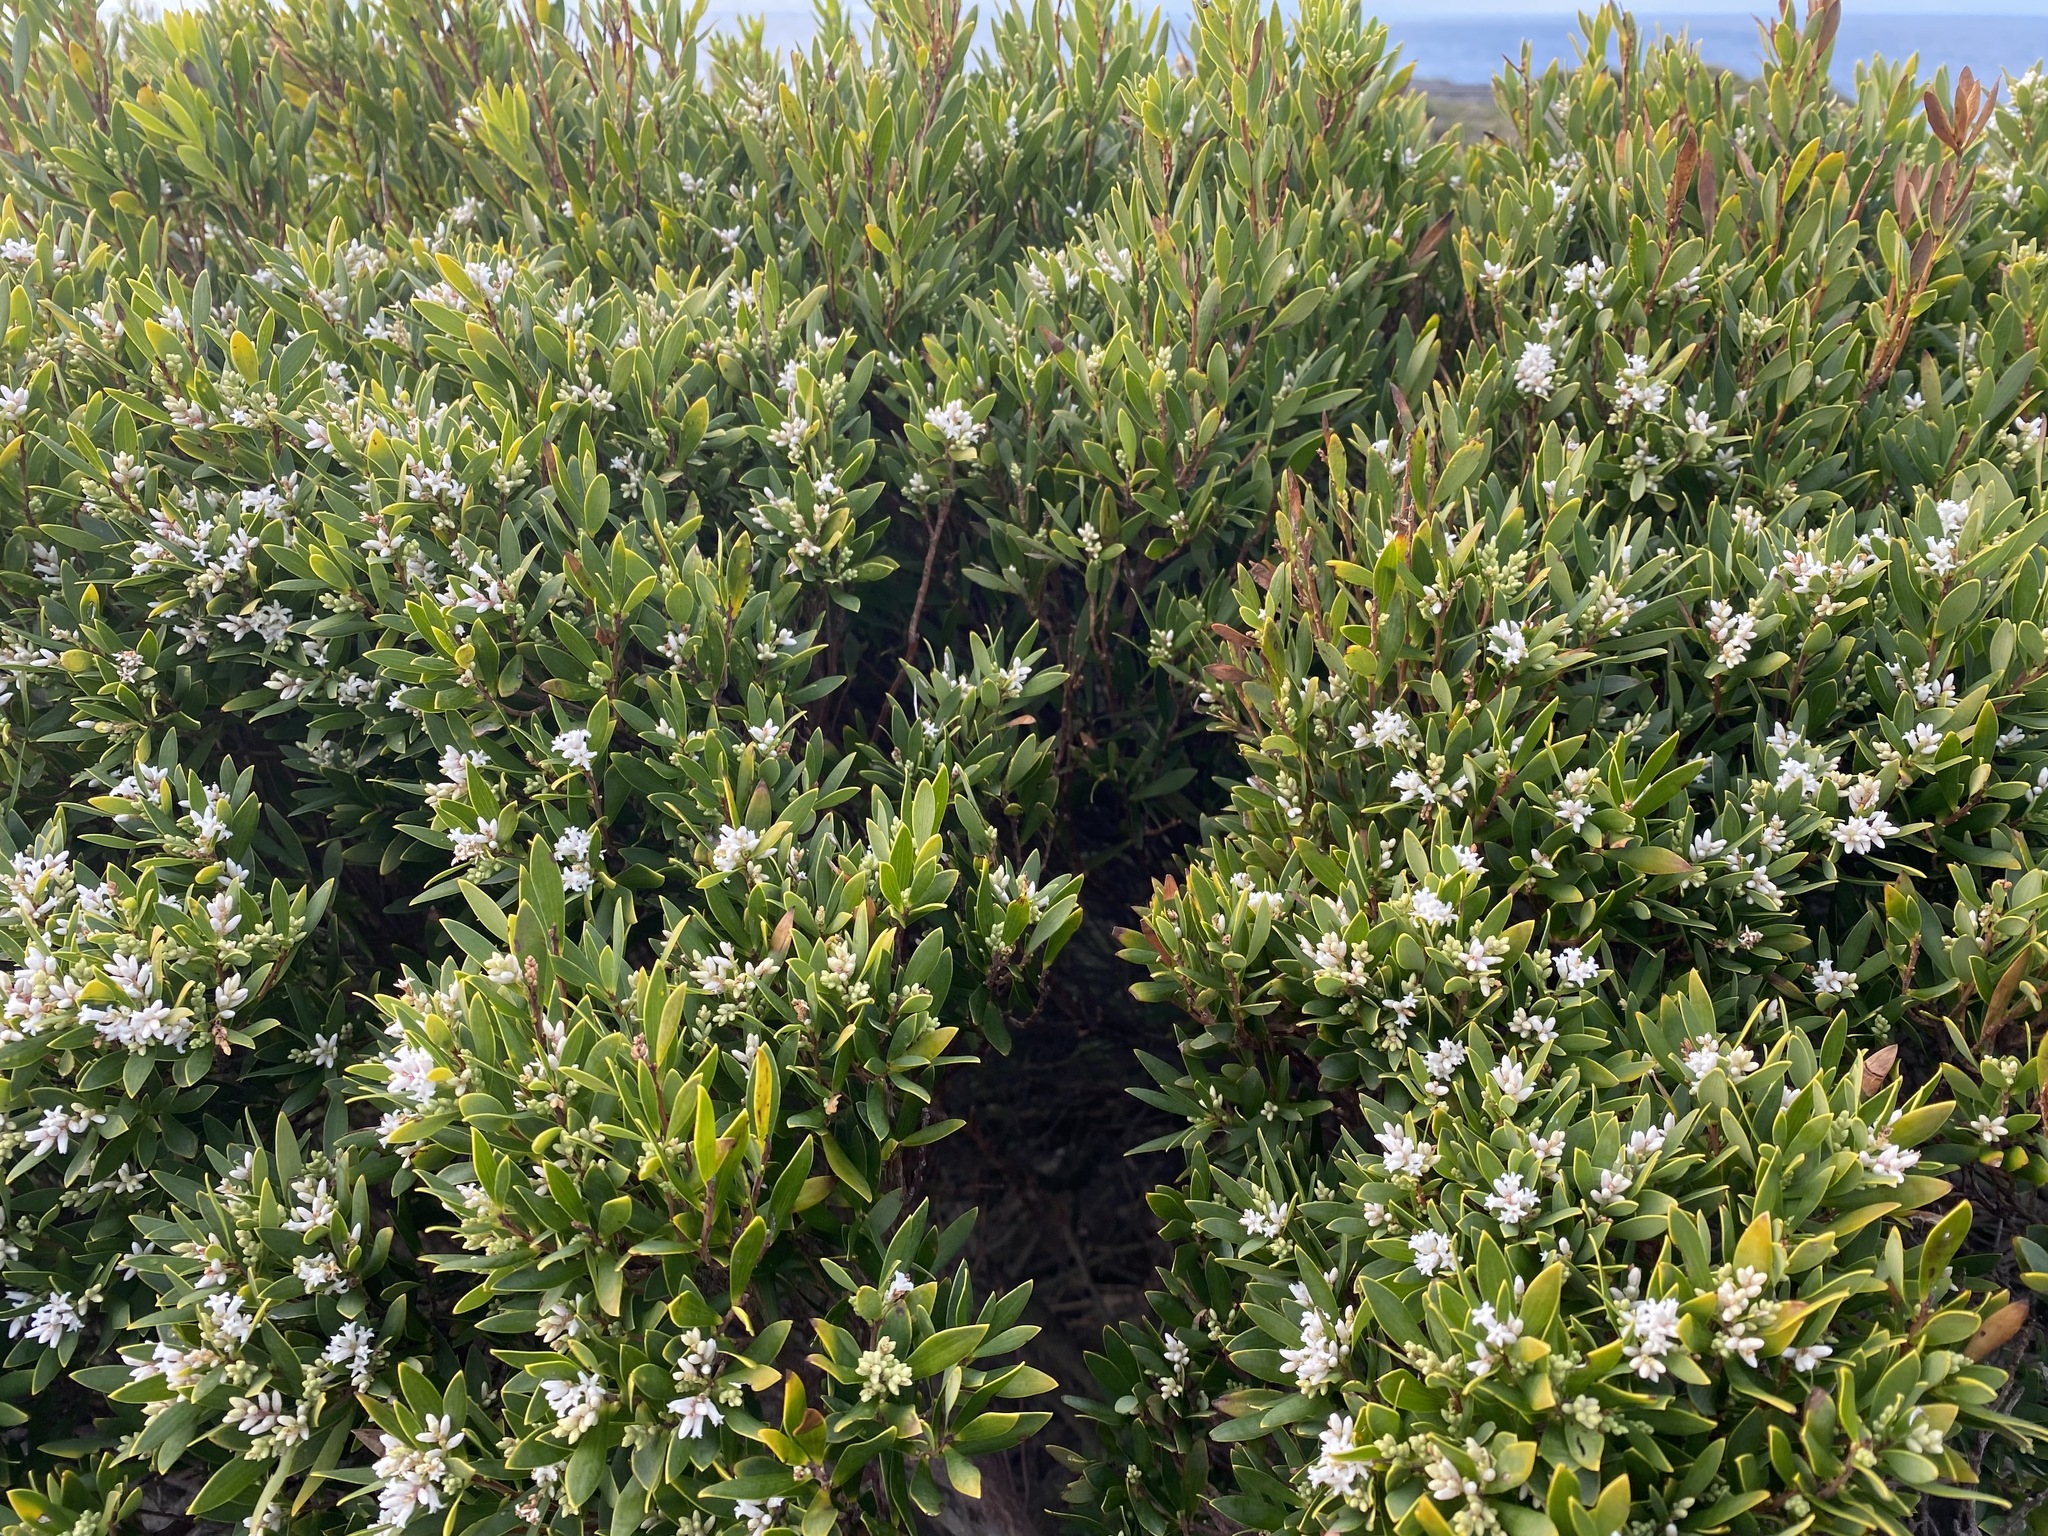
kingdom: Plantae
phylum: Tracheophyta
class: Magnoliopsida
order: Ericales
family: Ericaceae
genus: Leptecophylla
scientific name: Leptecophylla parvifolia
